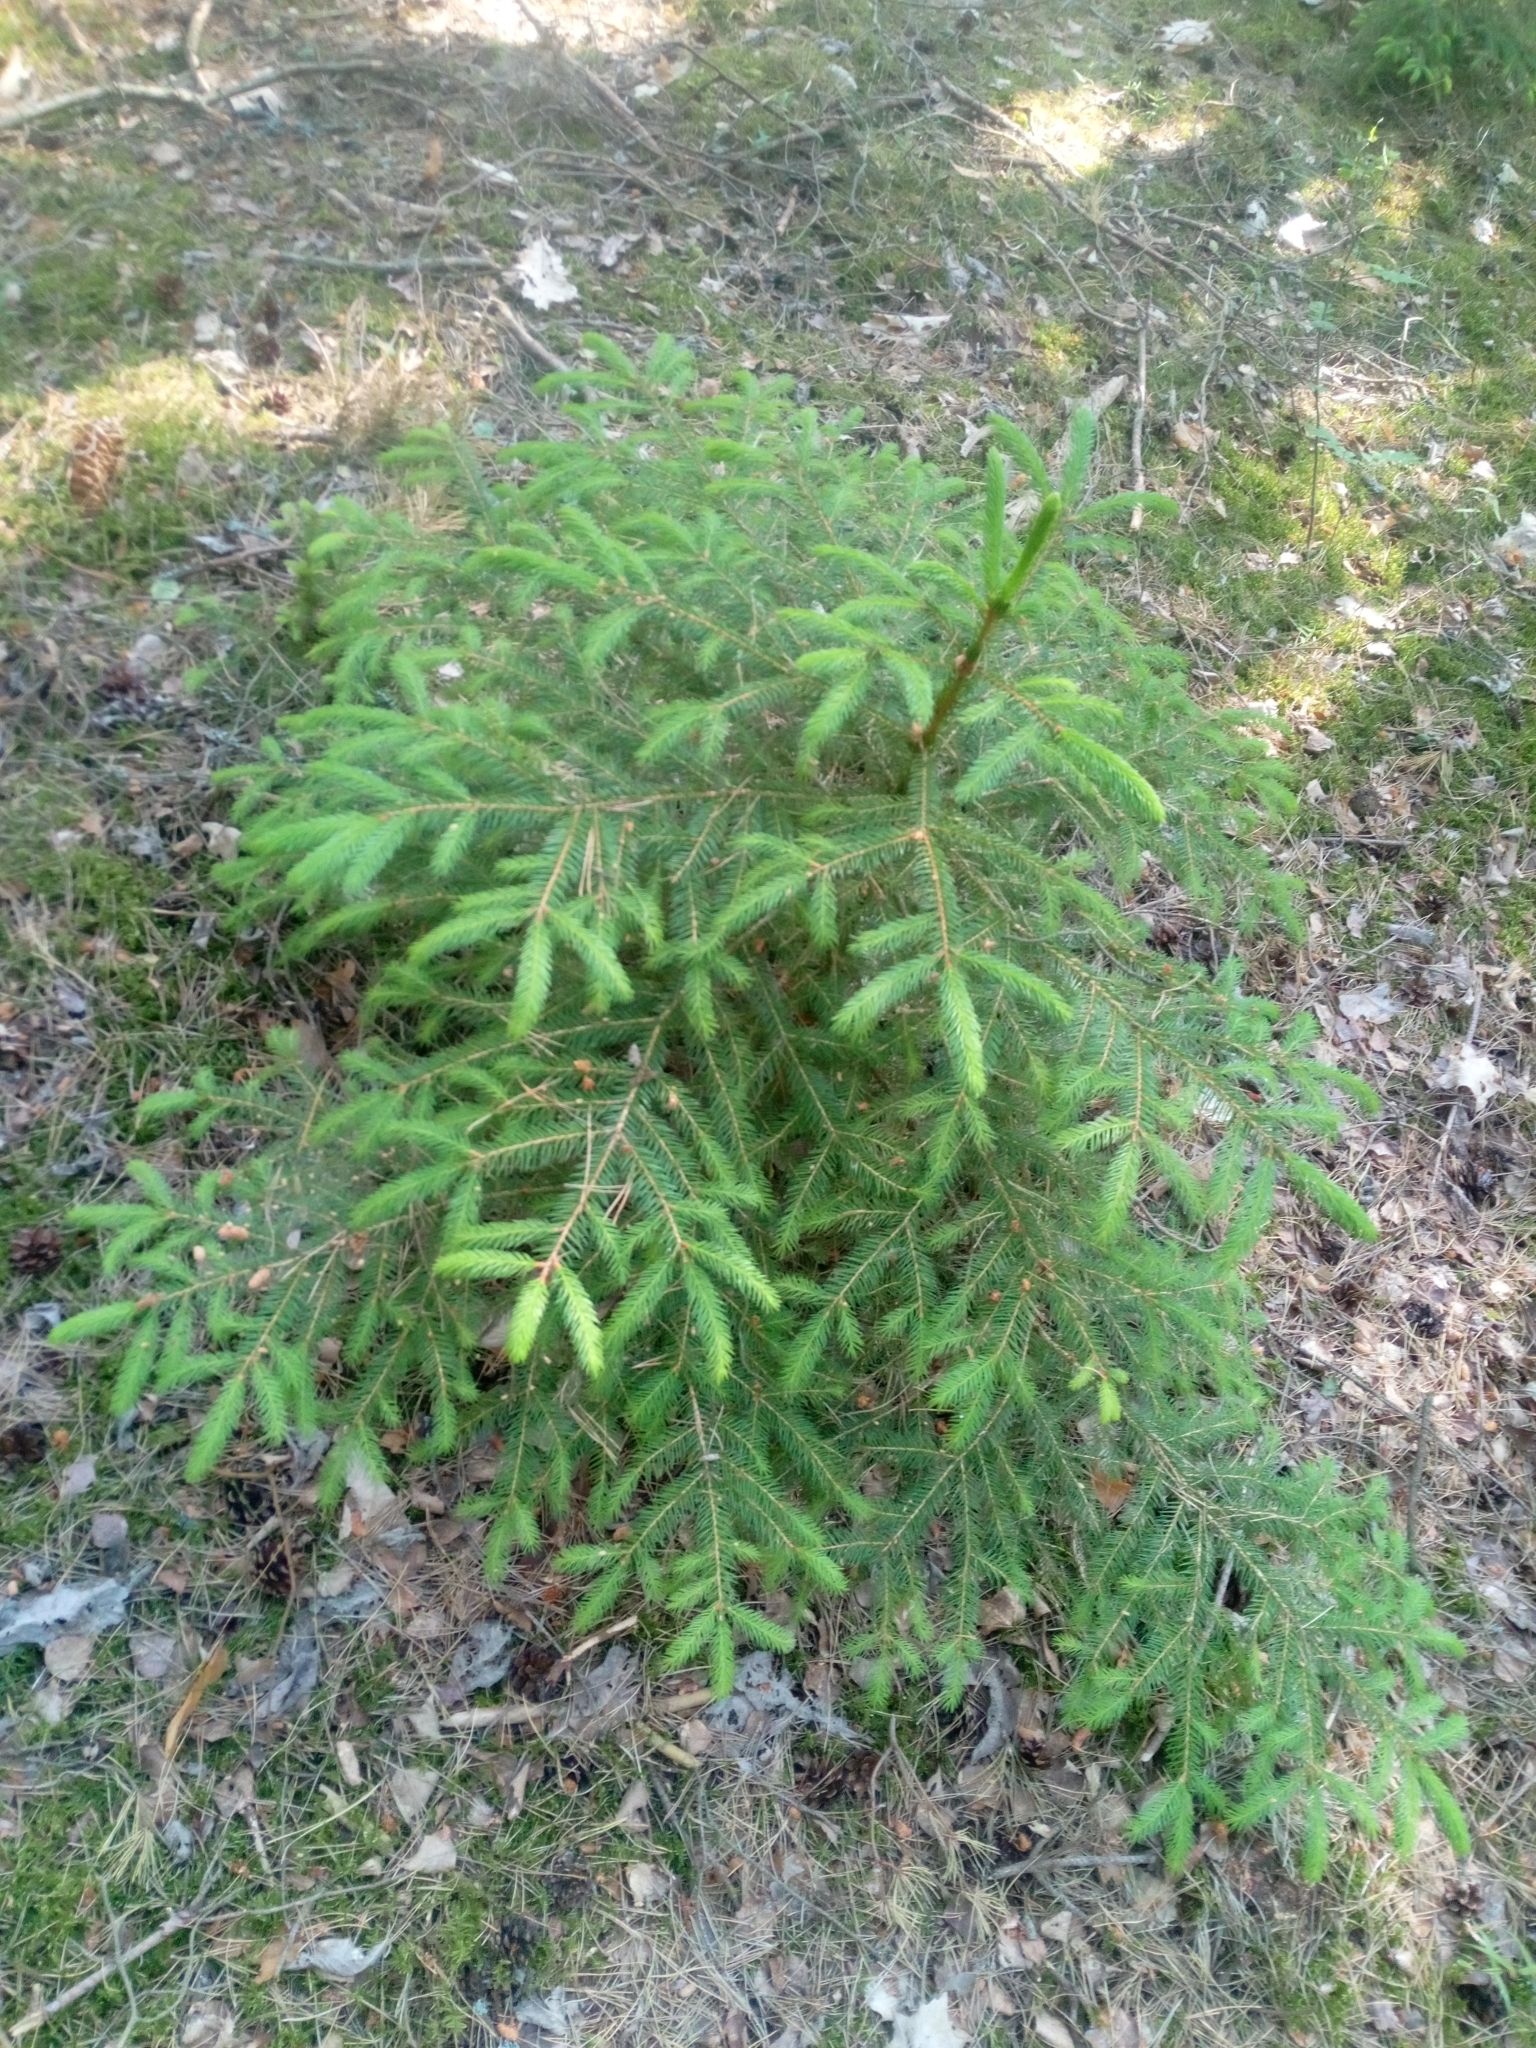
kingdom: Plantae
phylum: Tracheophyta
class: Pinopsida
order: Pinales
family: Pinaceae
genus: Picea
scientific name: Picea abies
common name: Norway spruce
